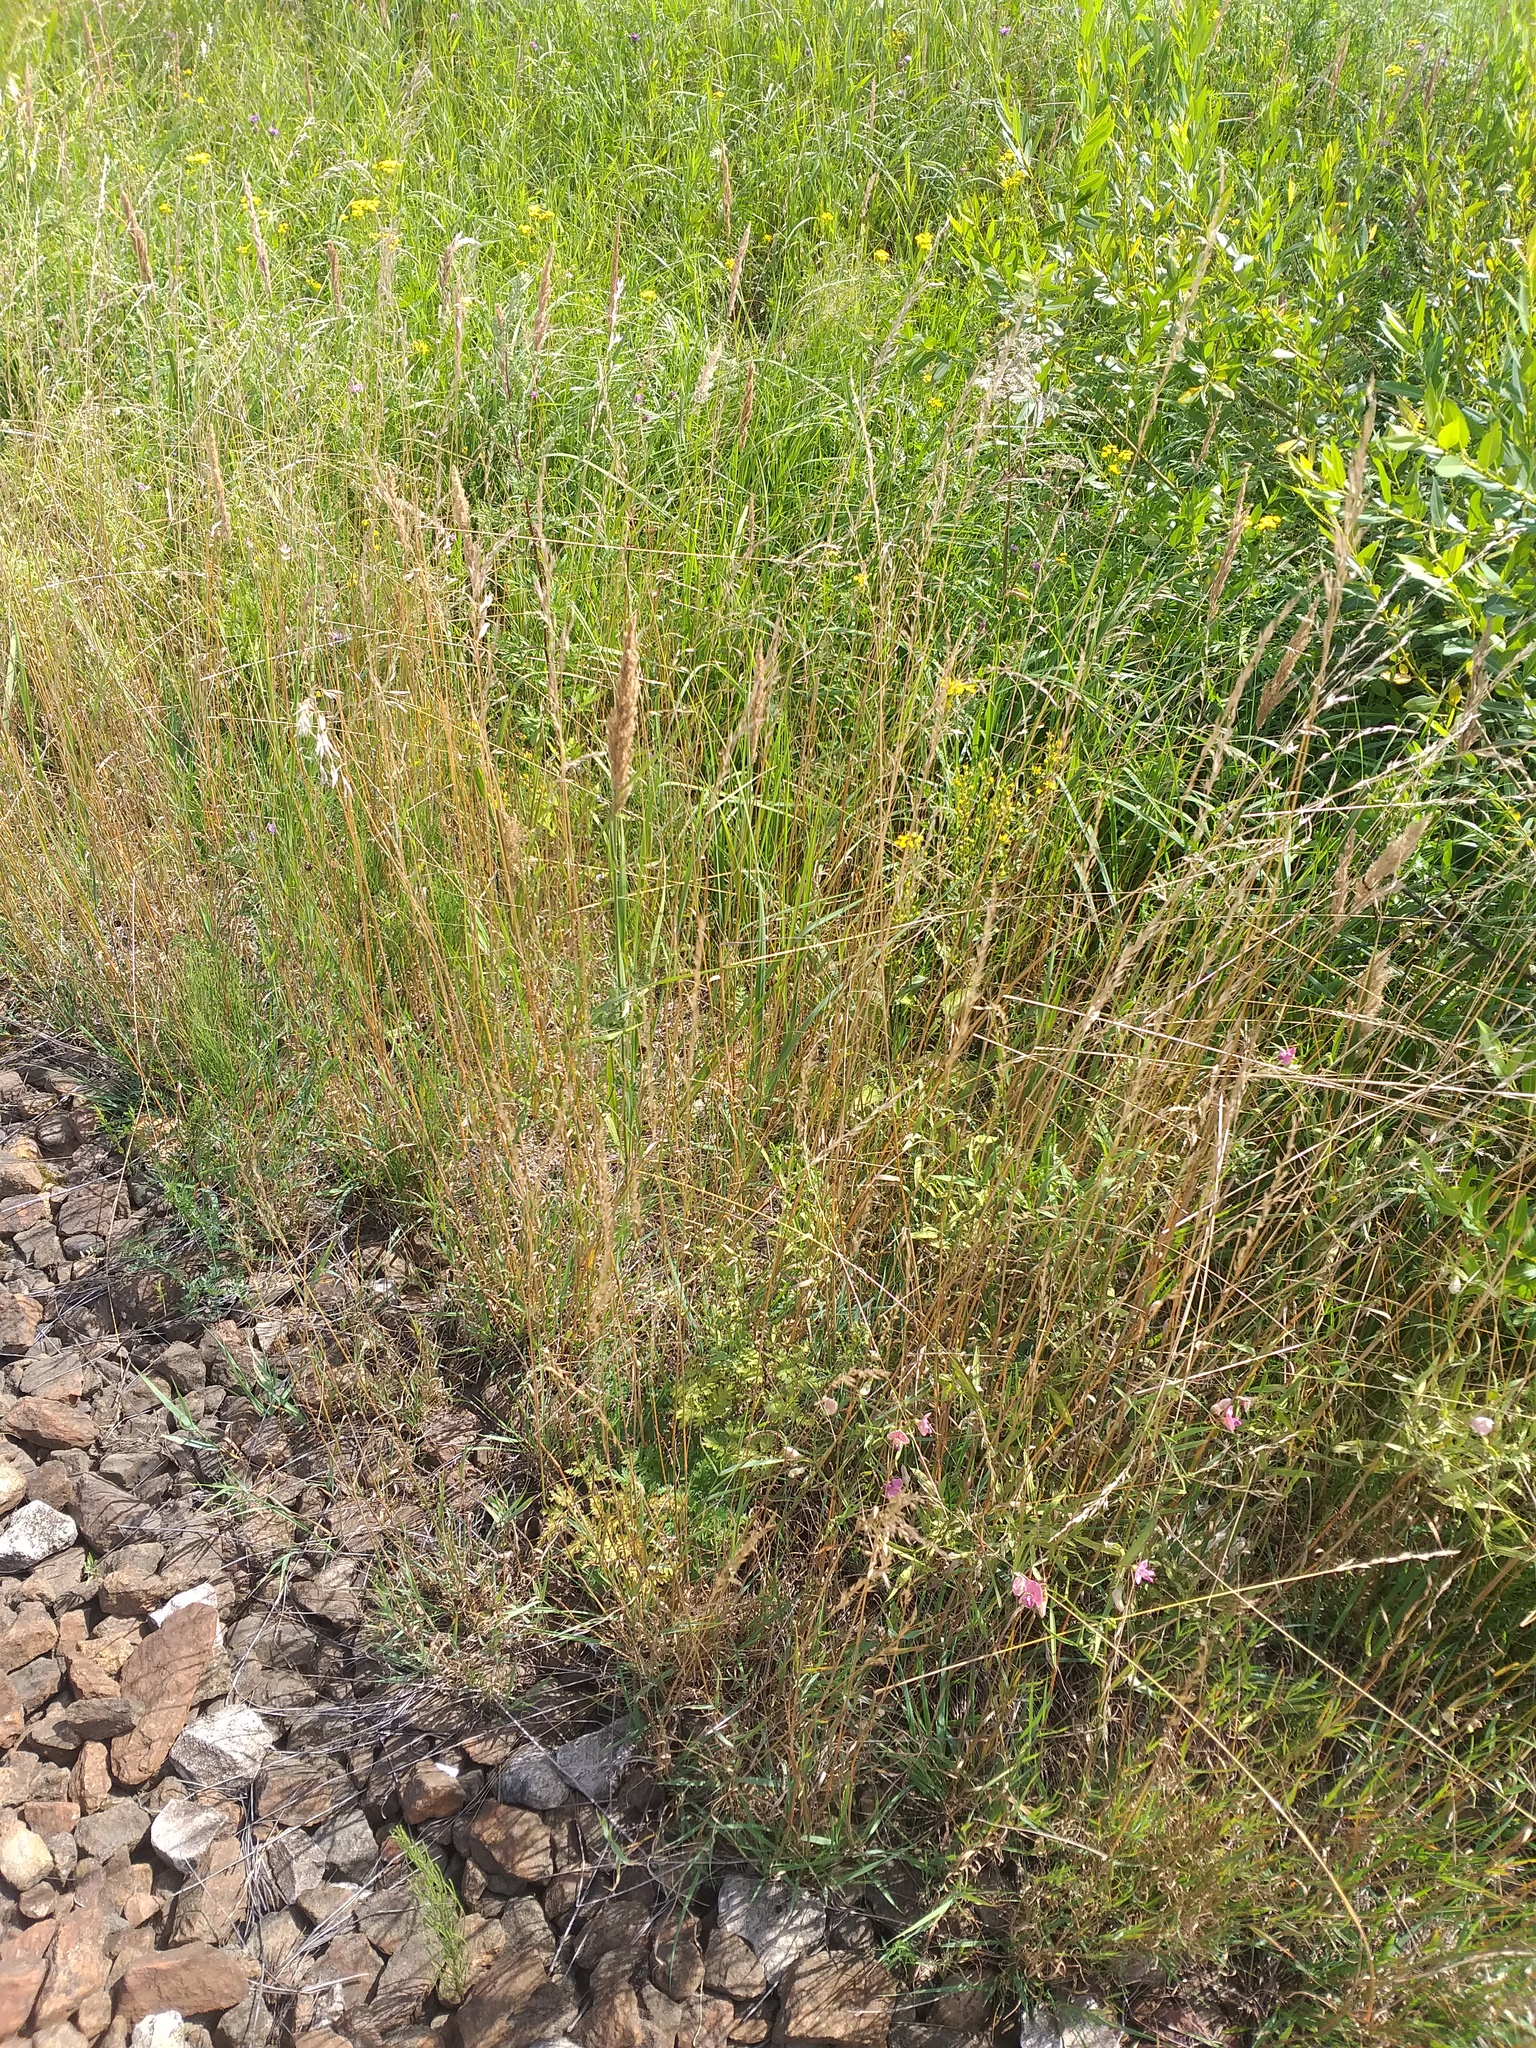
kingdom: Plantae
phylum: Tracheophyta
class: Liliopsida
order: Poales
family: Poaceae
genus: Arrhenatherum
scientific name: Arrhenatherum elatius
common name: Tall oatgrass
